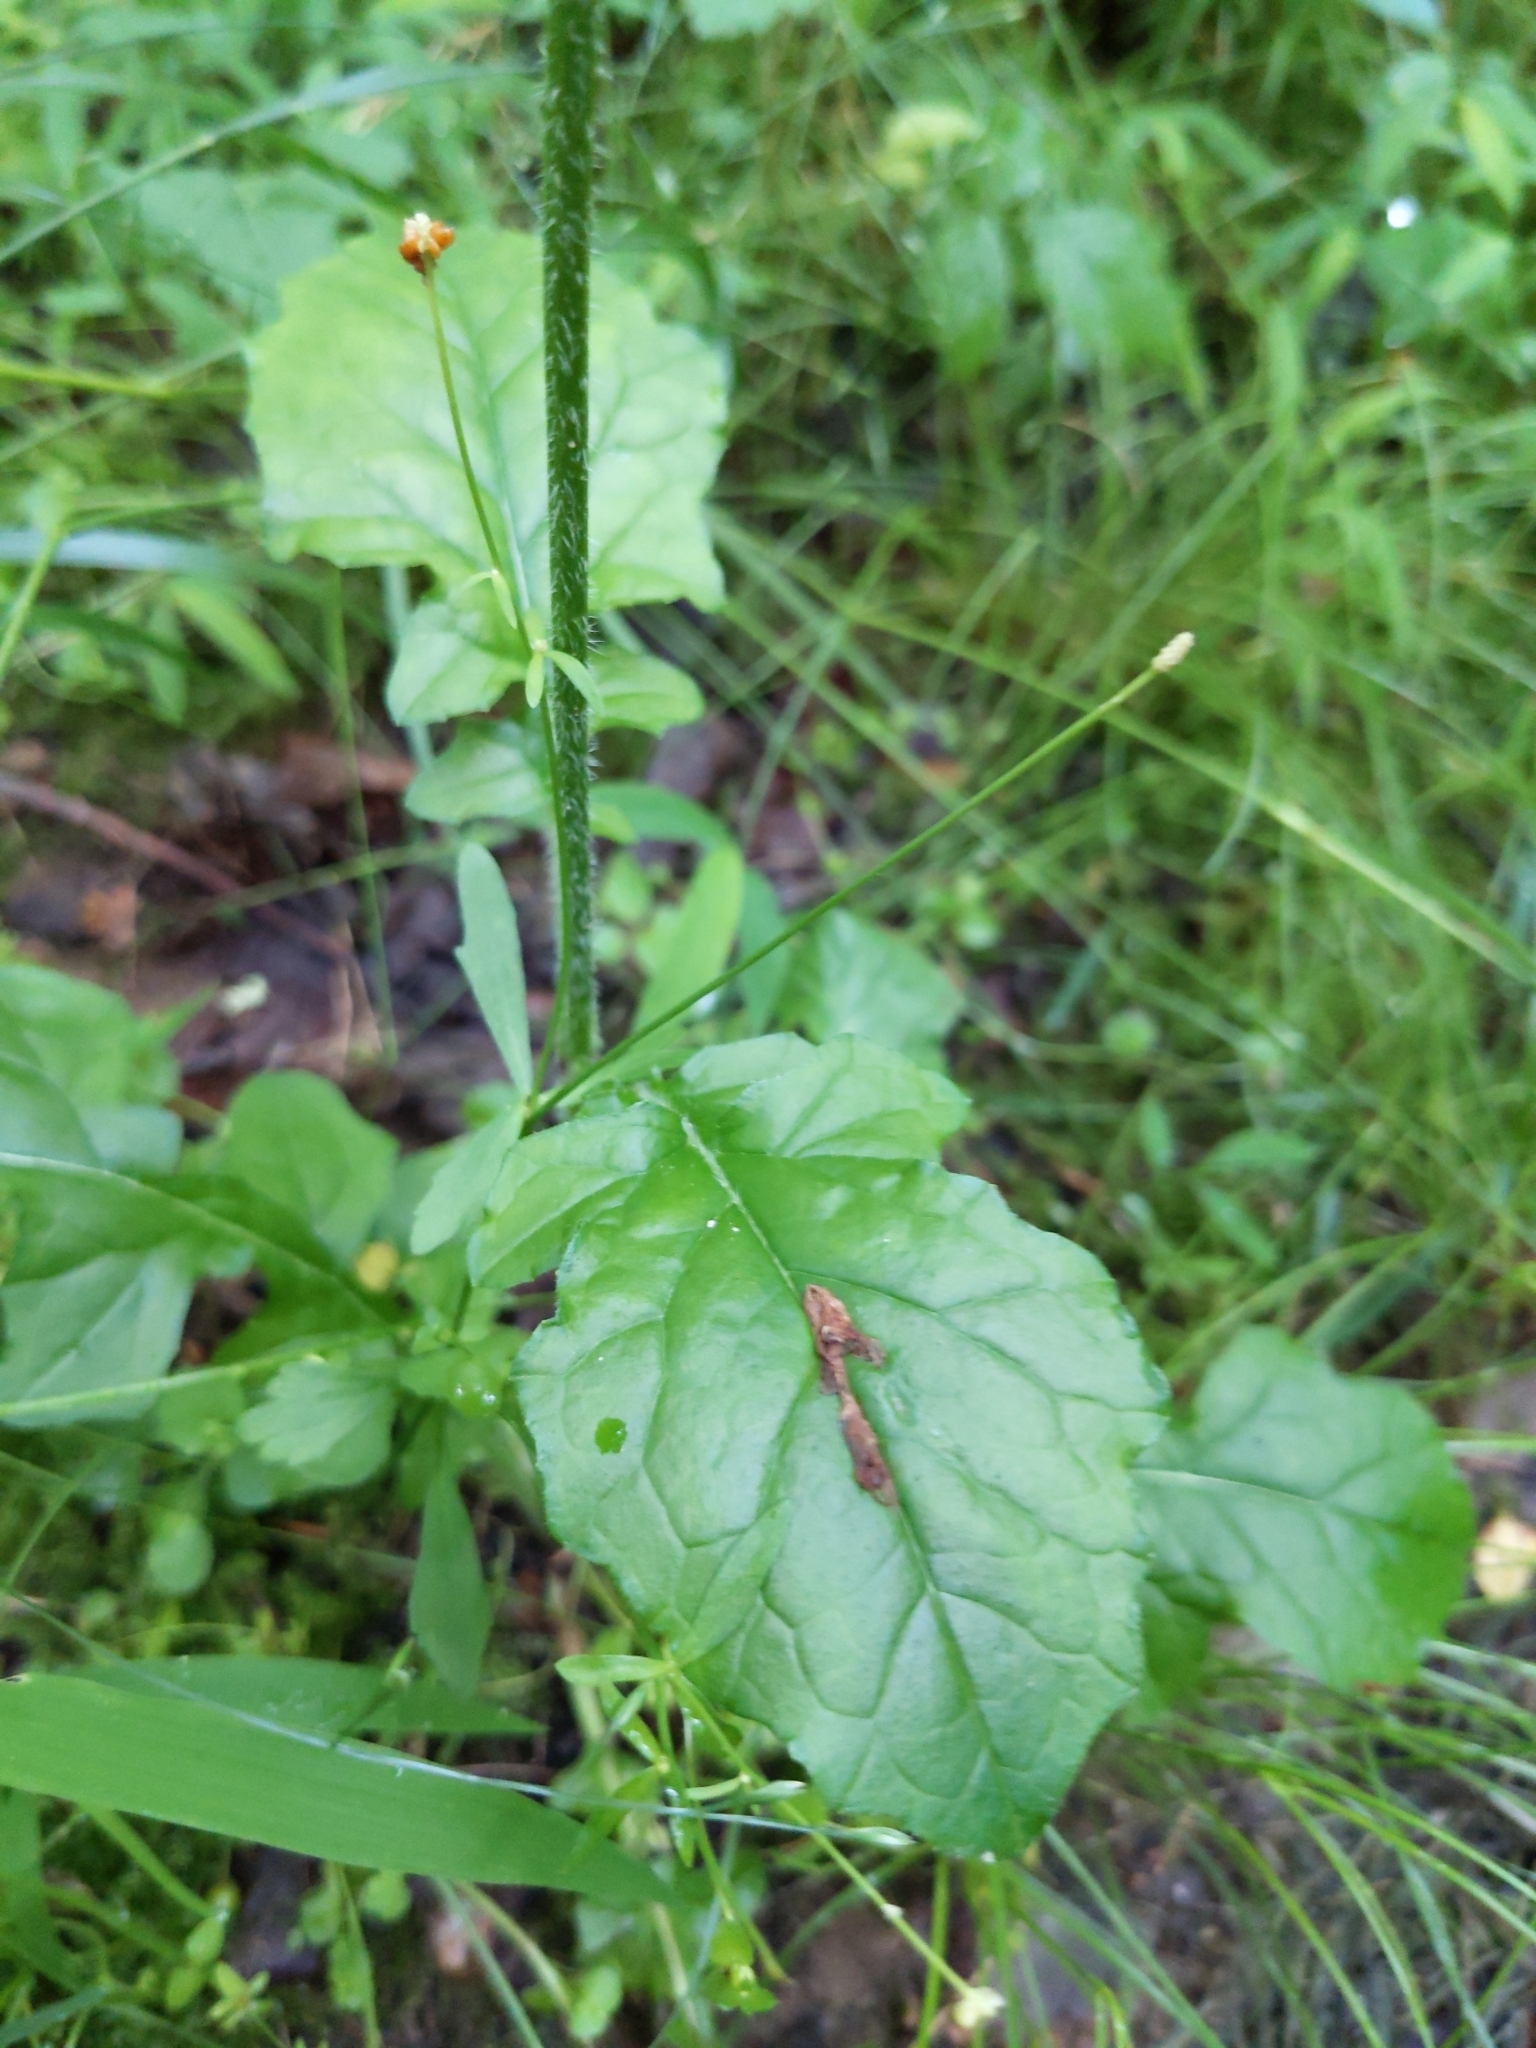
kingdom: Plantae
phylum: Tracheophyta
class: Magnoliopsida
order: Asterales
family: Asteraceae
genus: Lapsana
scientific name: Lapsana communis
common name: Nipplewort
